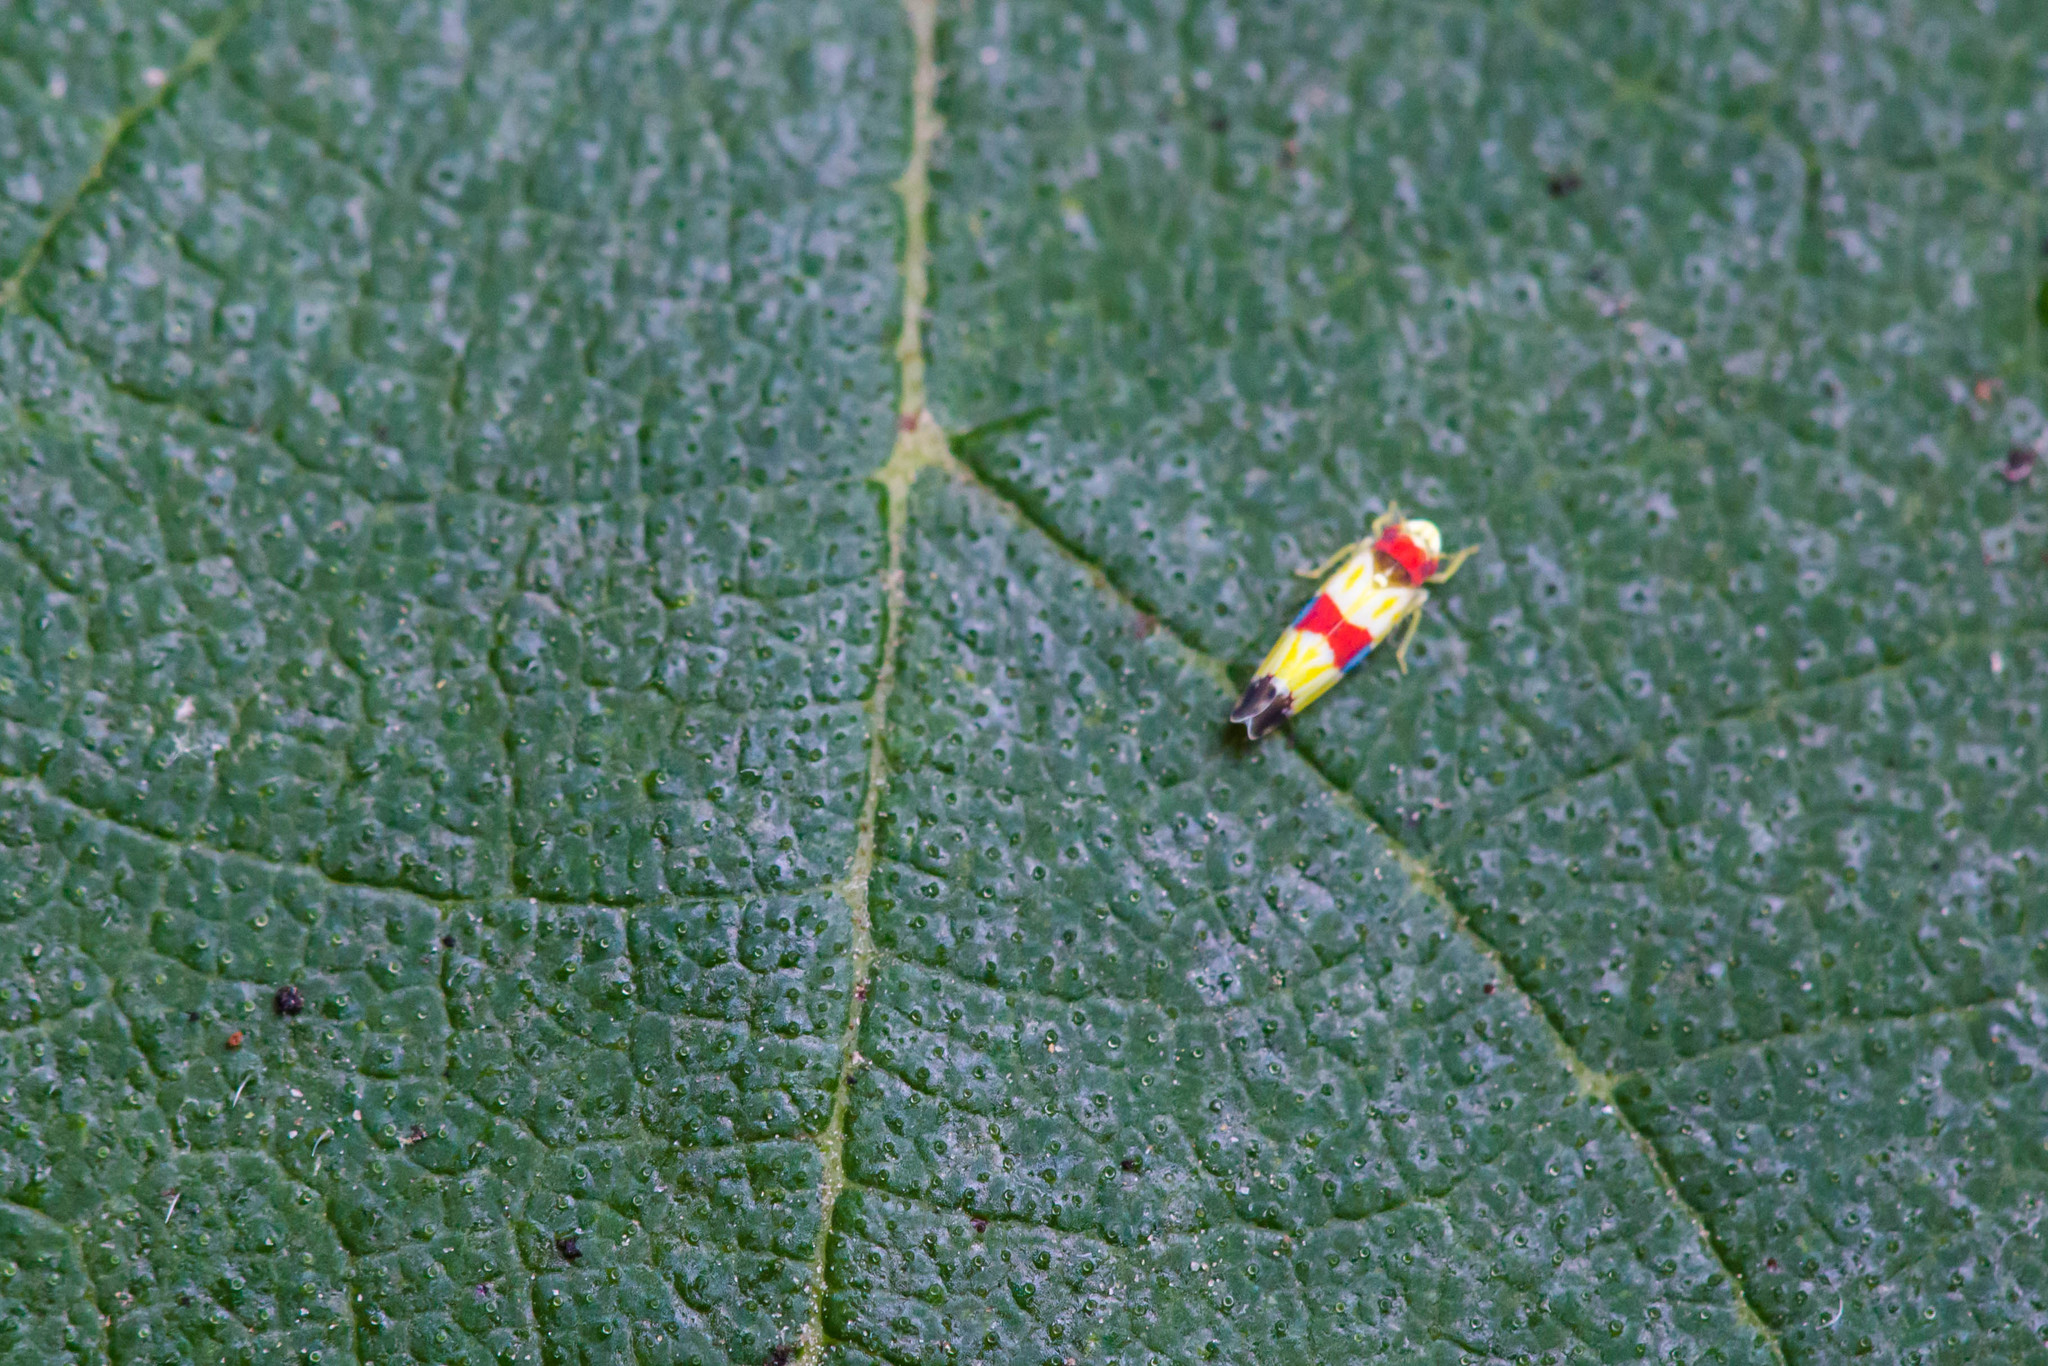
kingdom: Animalia
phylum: Arthropoda
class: Insecta
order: Hemiptera
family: Cicadellidae
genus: Erythroneura
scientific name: Erythroneura diva
